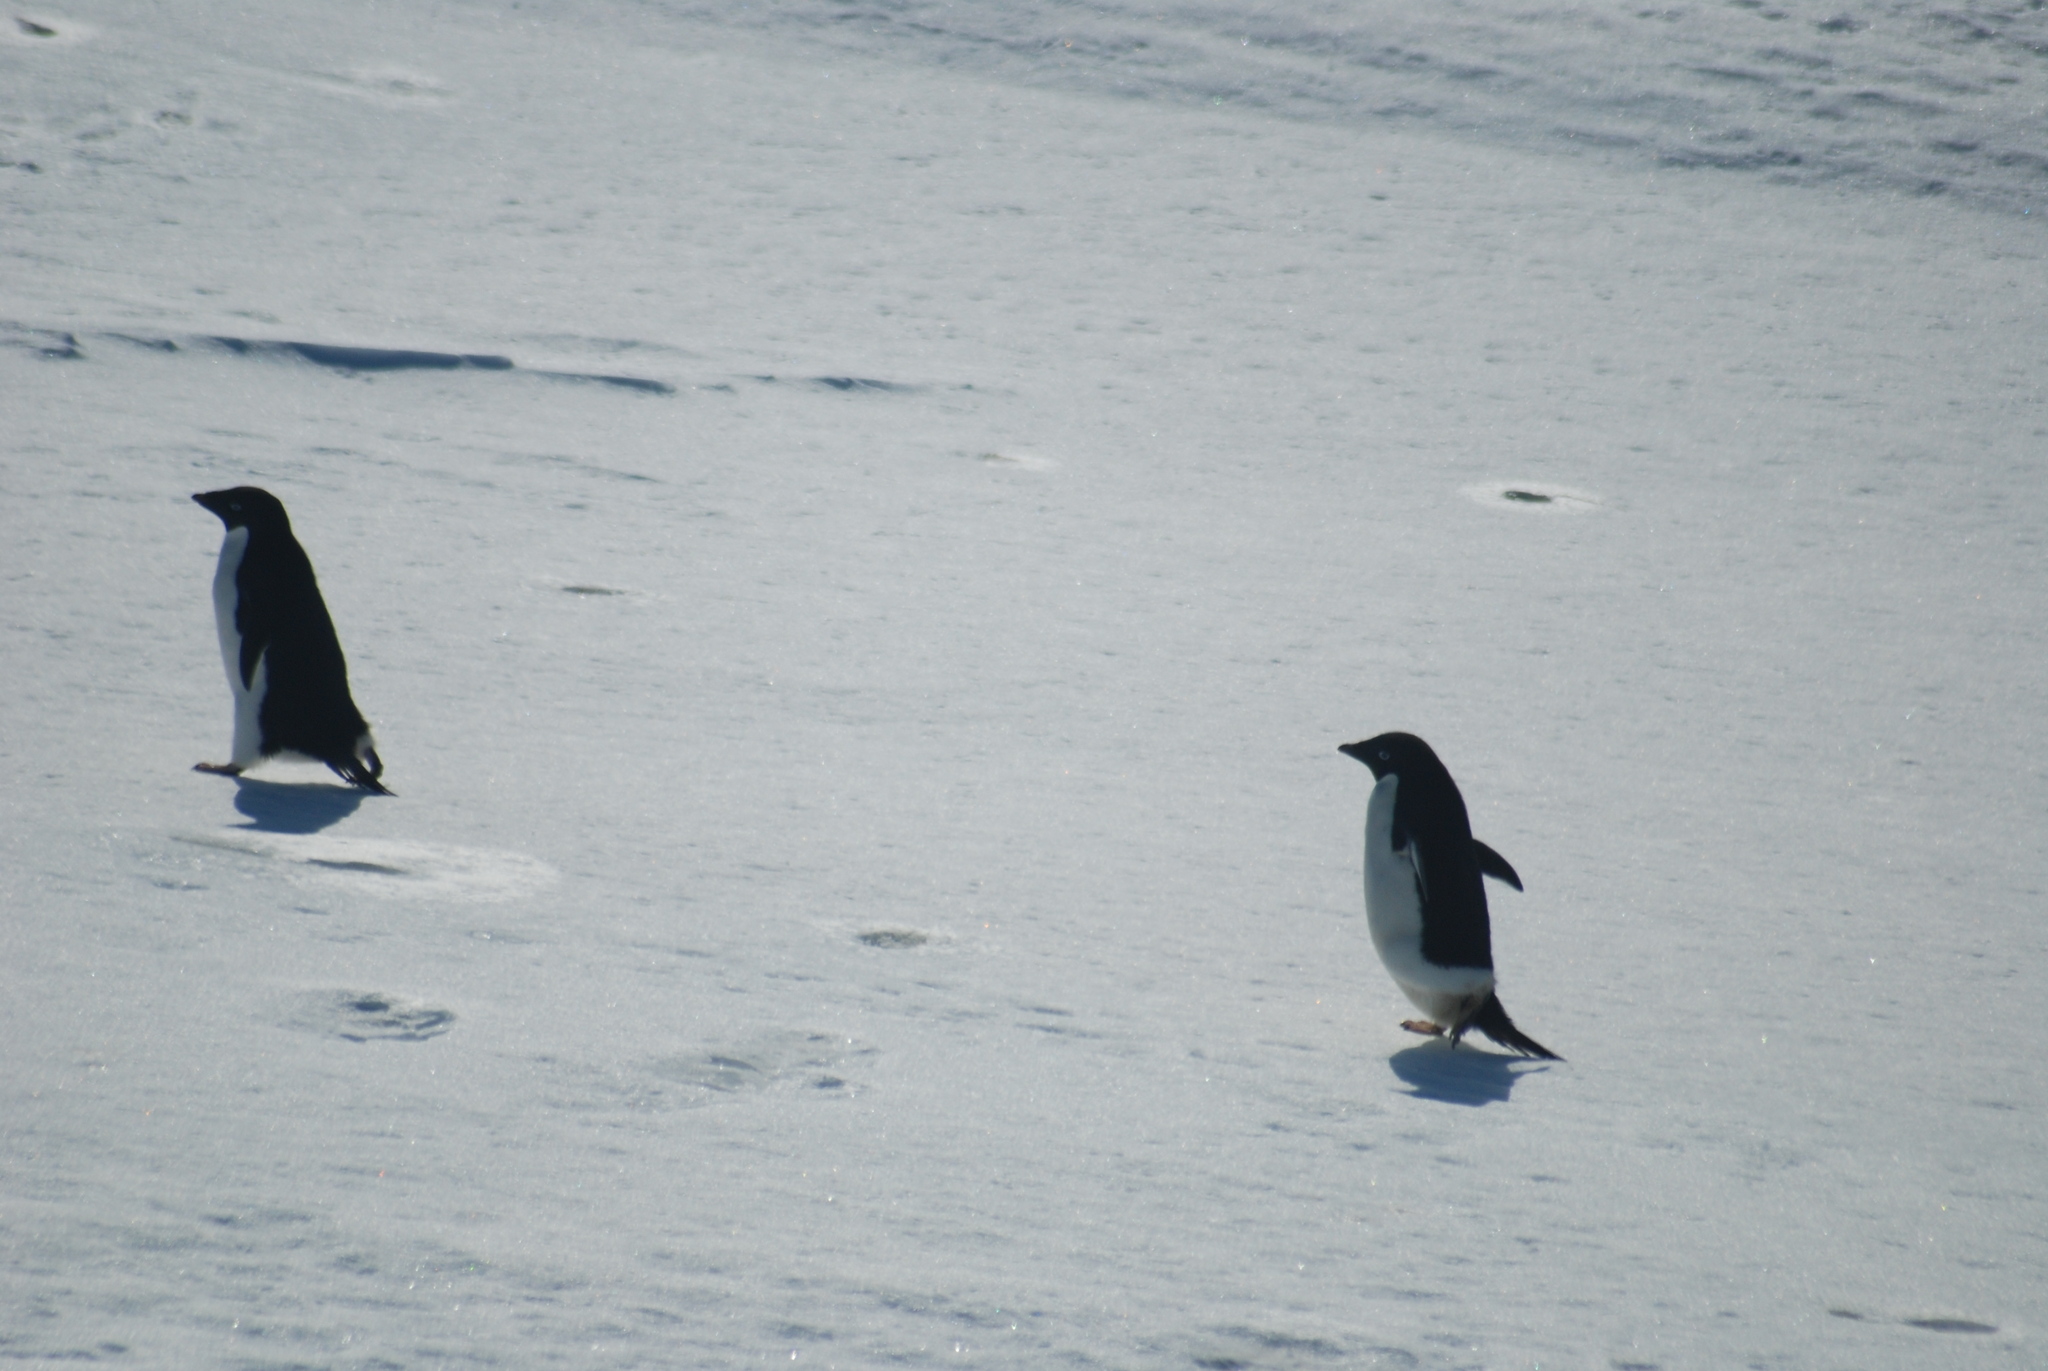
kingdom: Animalia
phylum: Chordata
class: Aves
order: Sphenisciformes
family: Spheniscidae
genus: Pygoscelis
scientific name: Pygoscelis adeliae
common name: Adelie penguin
